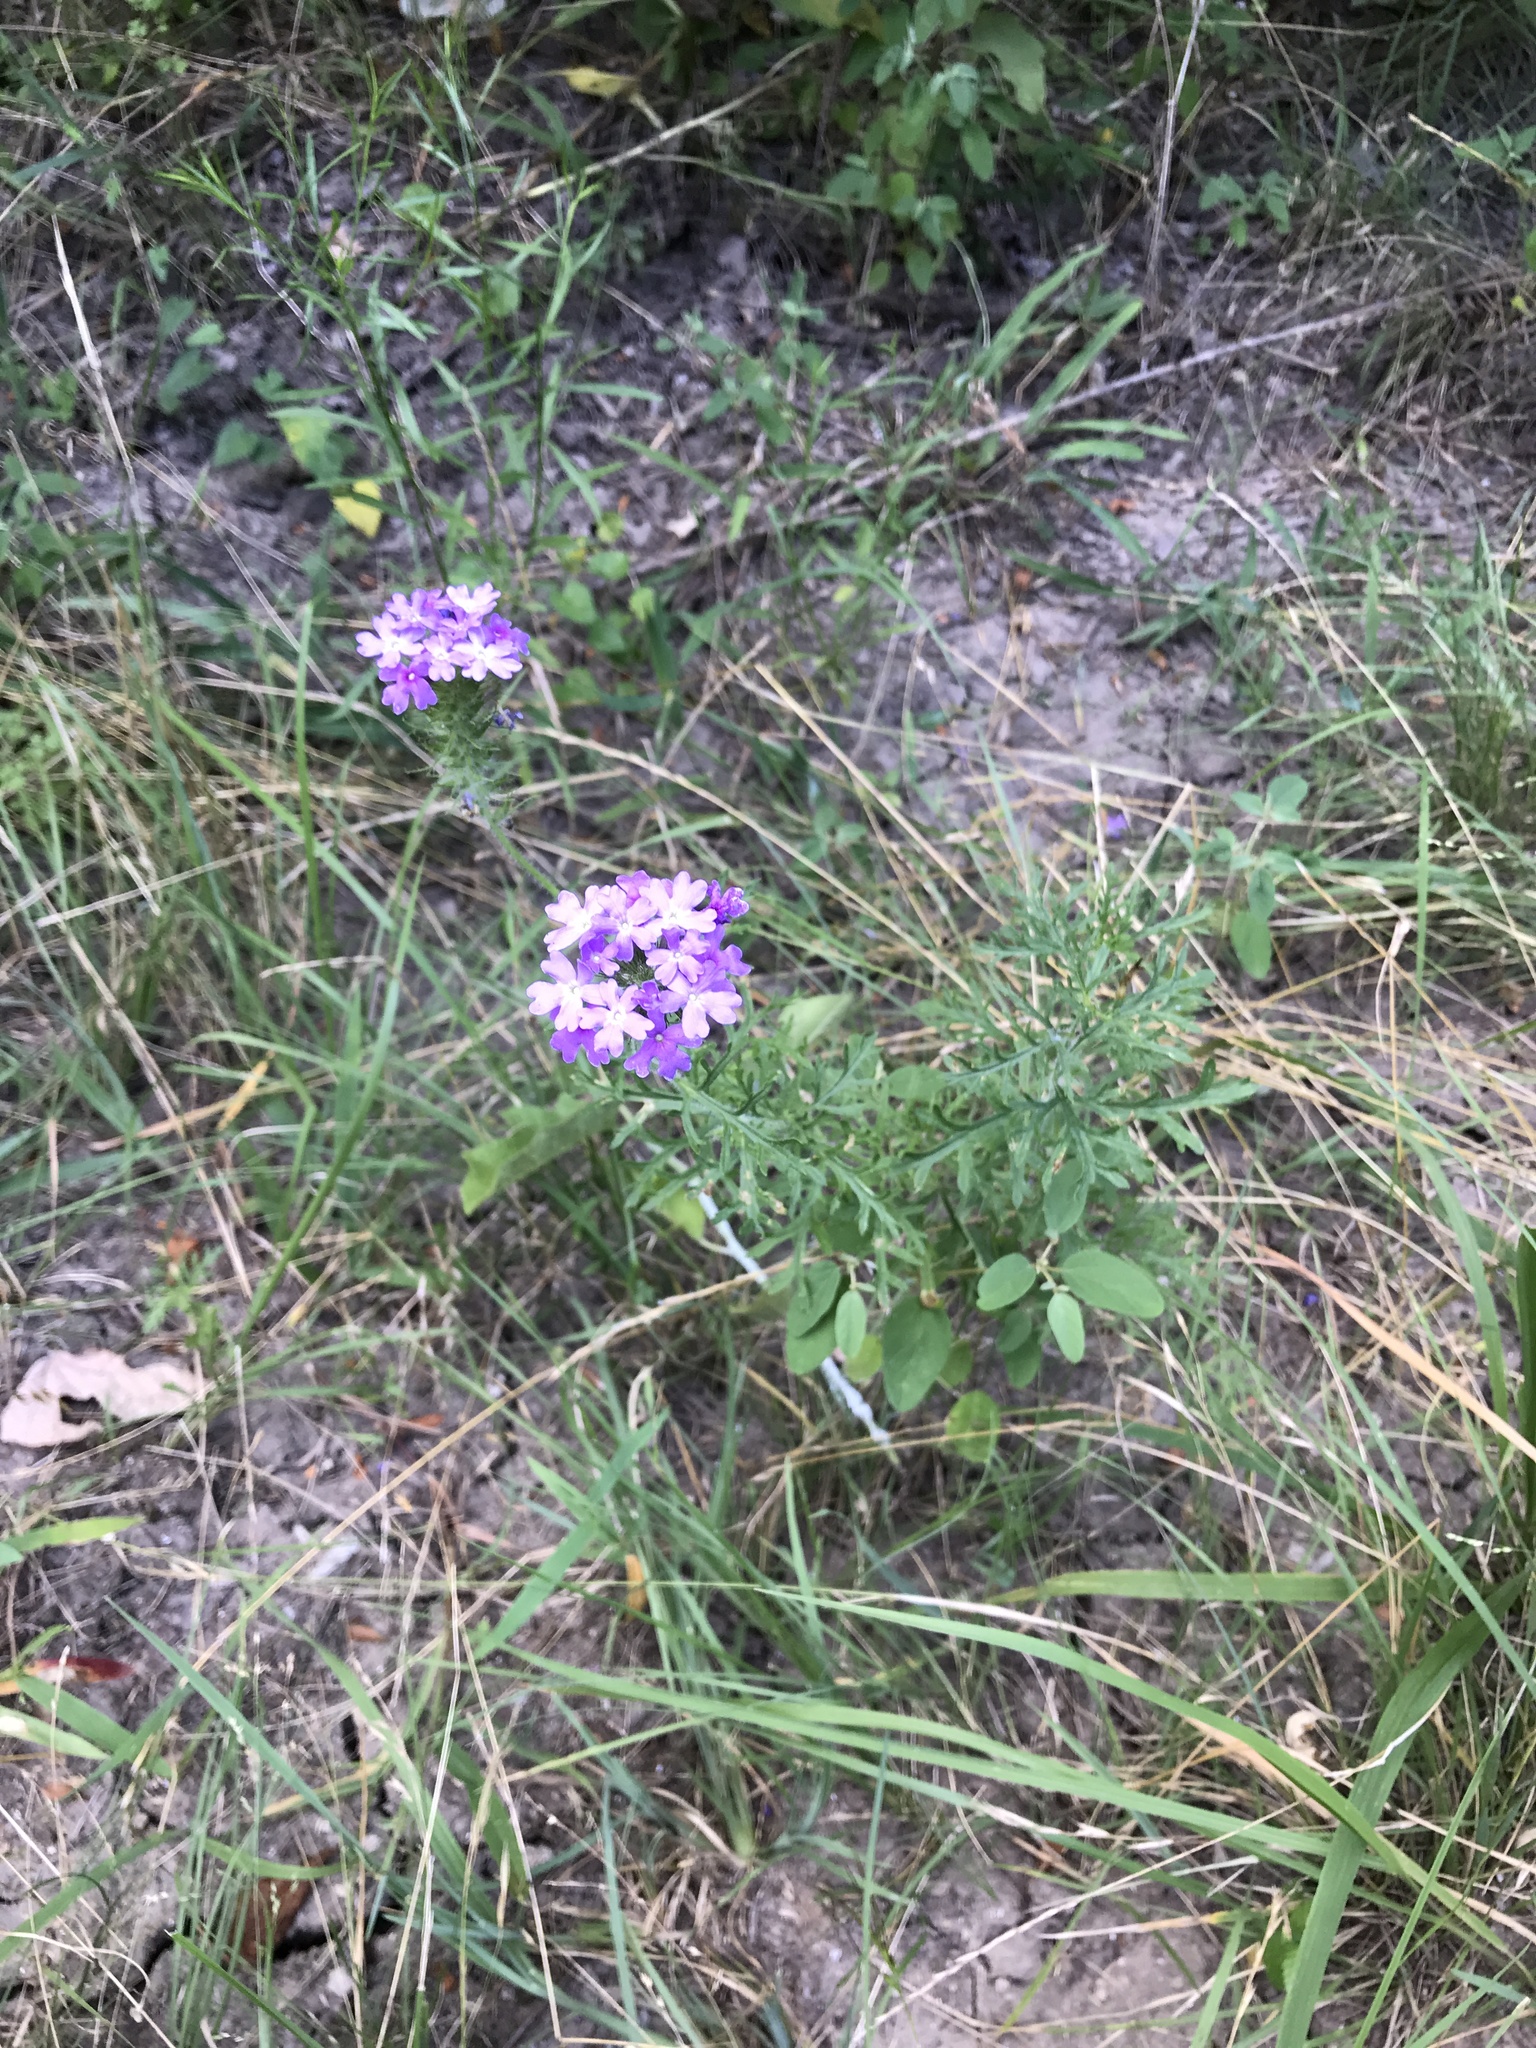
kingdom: Plantae
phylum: Tracheophyta
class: Magnoliopsida
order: Lamiales
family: Verbenaceae
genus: Verbena
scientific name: Verbena bipinnatifida
